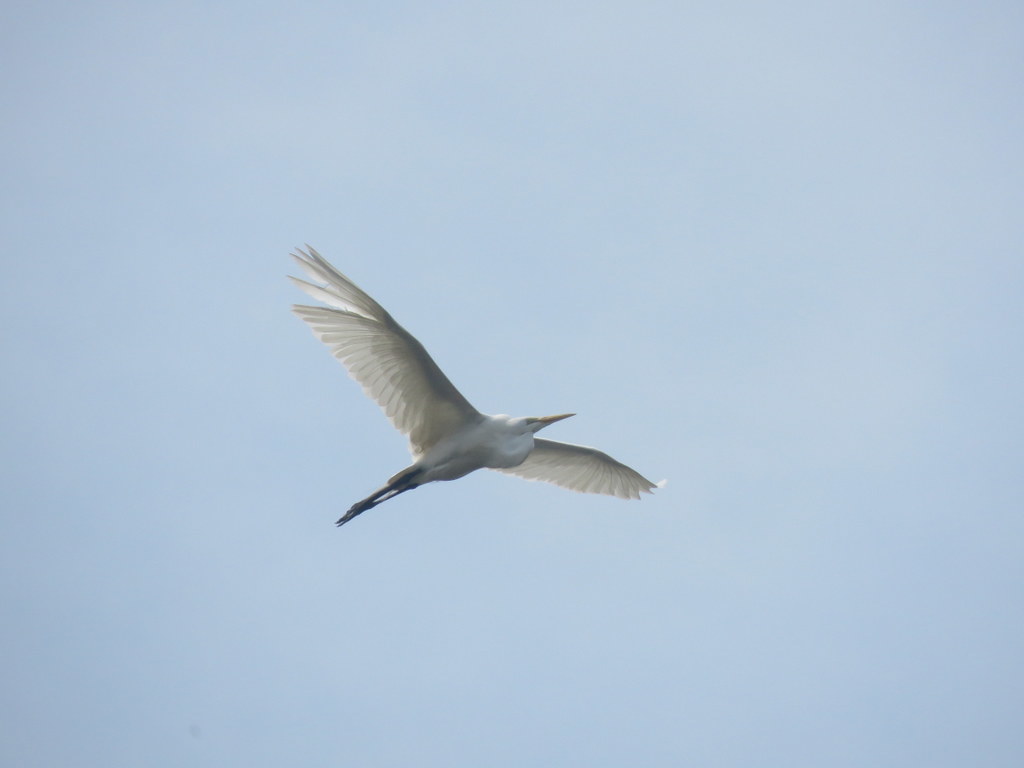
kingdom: Animalia
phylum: Chordata
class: Aves
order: Pelecaniformes
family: Ardeidae
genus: Ardea
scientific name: Ardea alba
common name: Great egret
